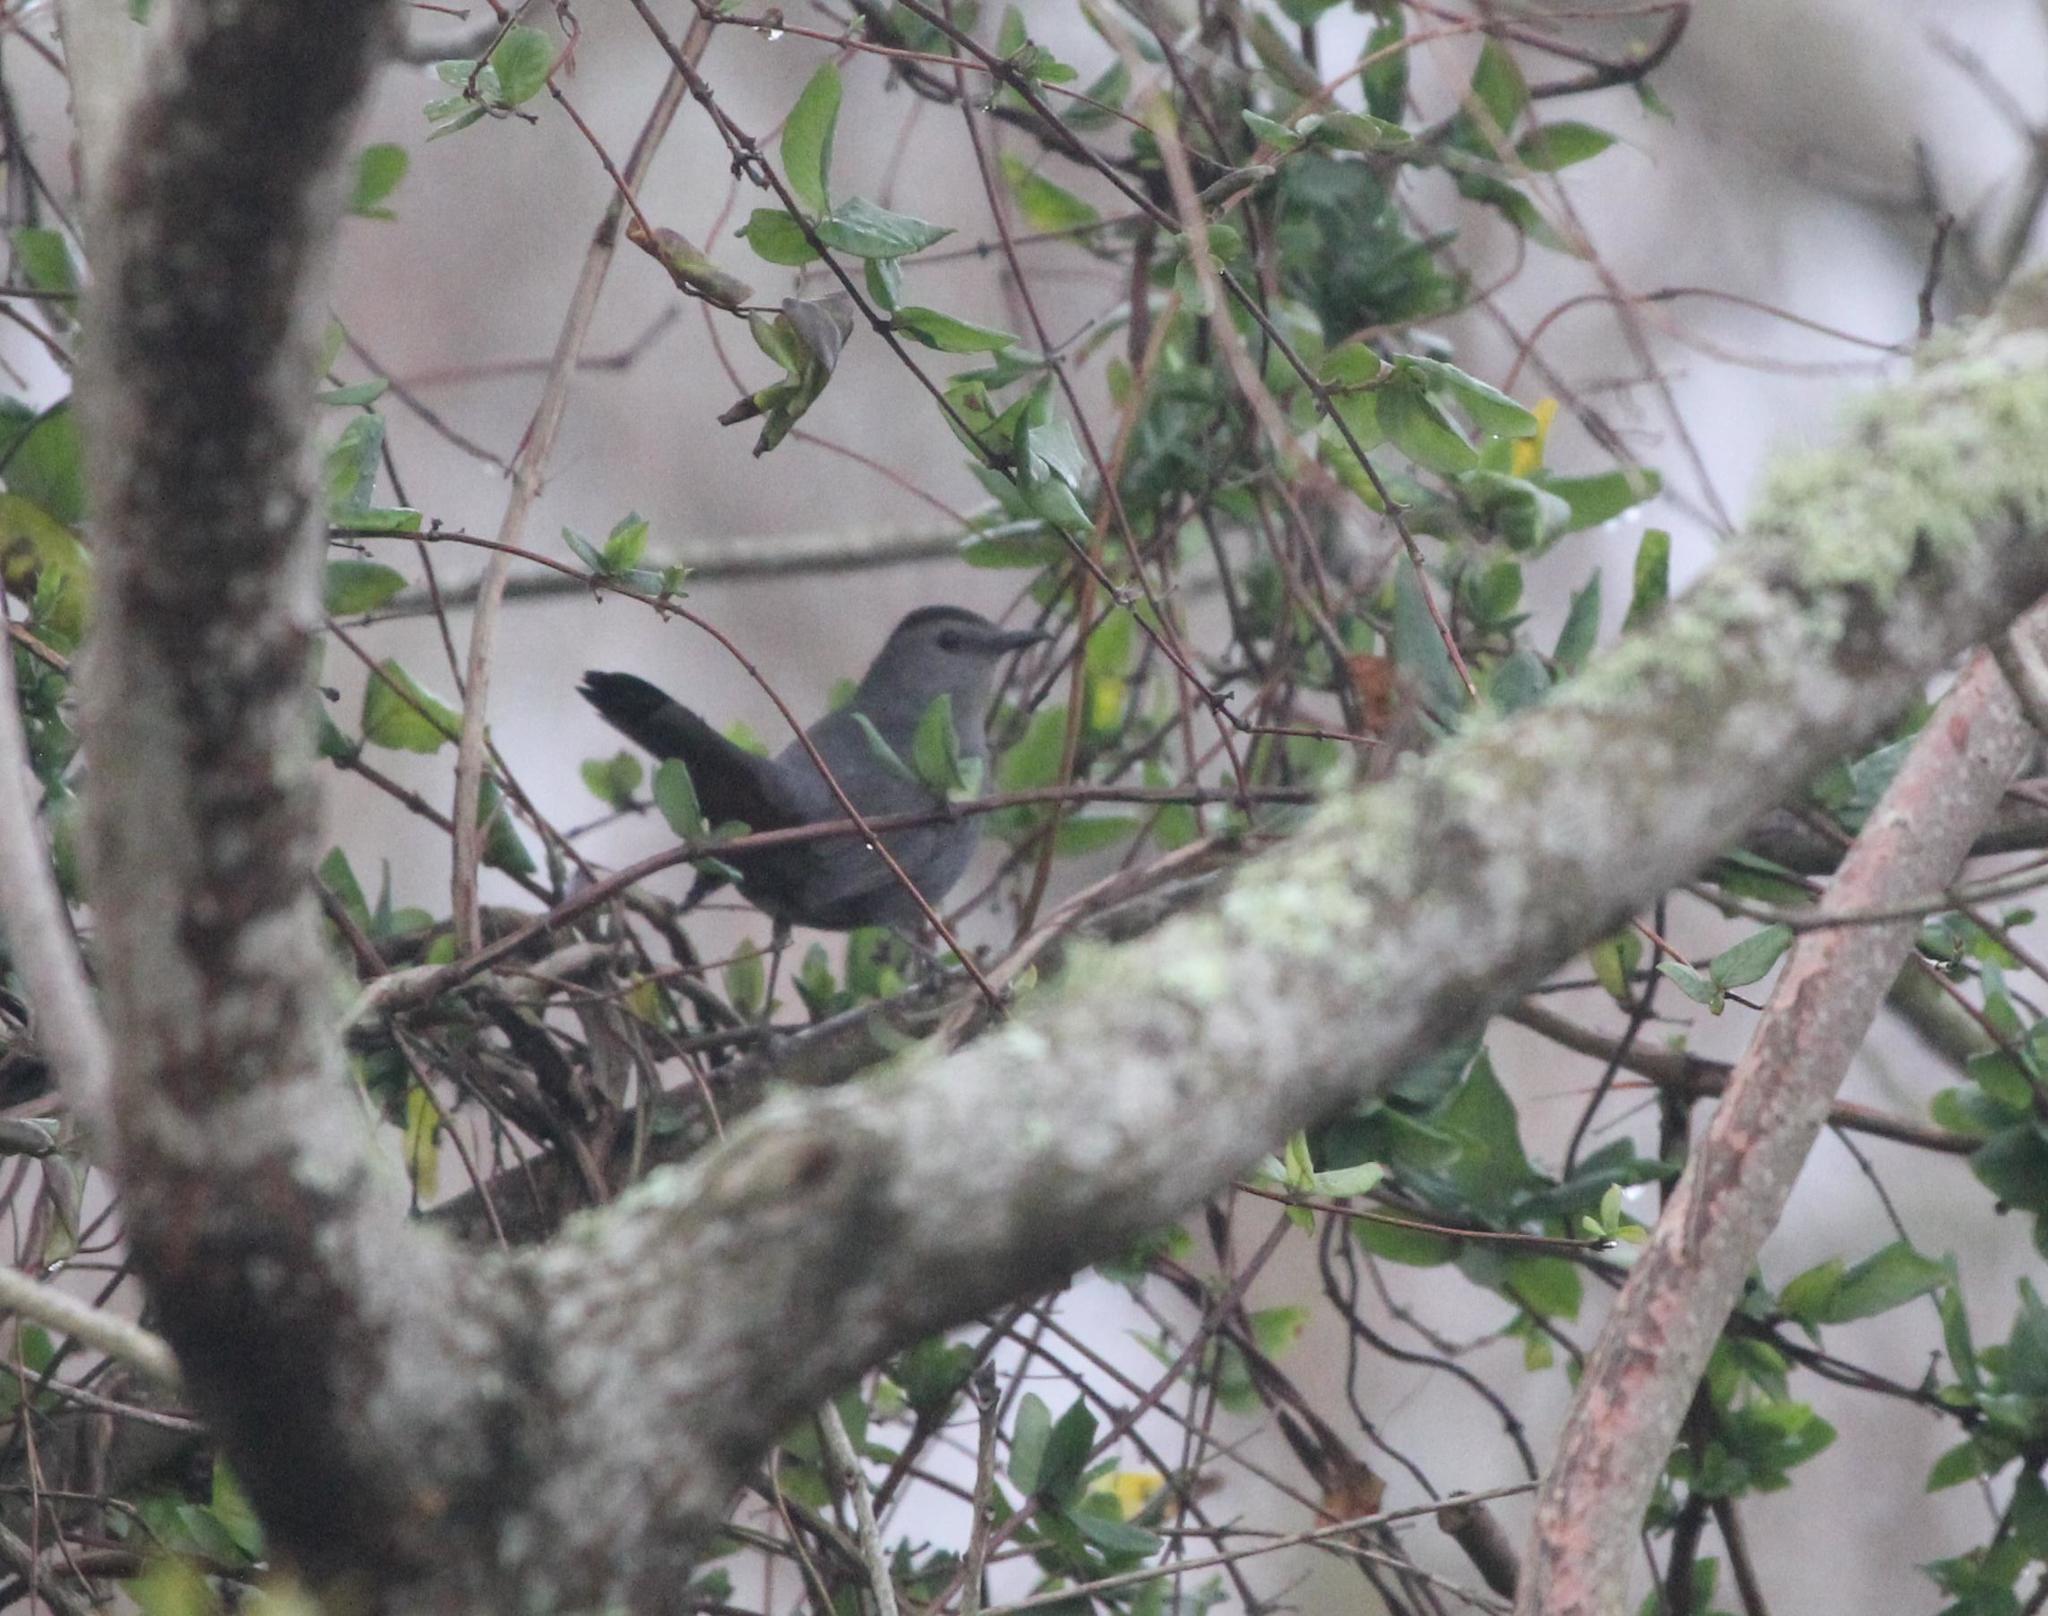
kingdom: Animalia
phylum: Chordata
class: Aves
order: Passeriformes
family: Mimidae
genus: Dumetella
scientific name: Dumetella carolinensis
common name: Gray catbird
